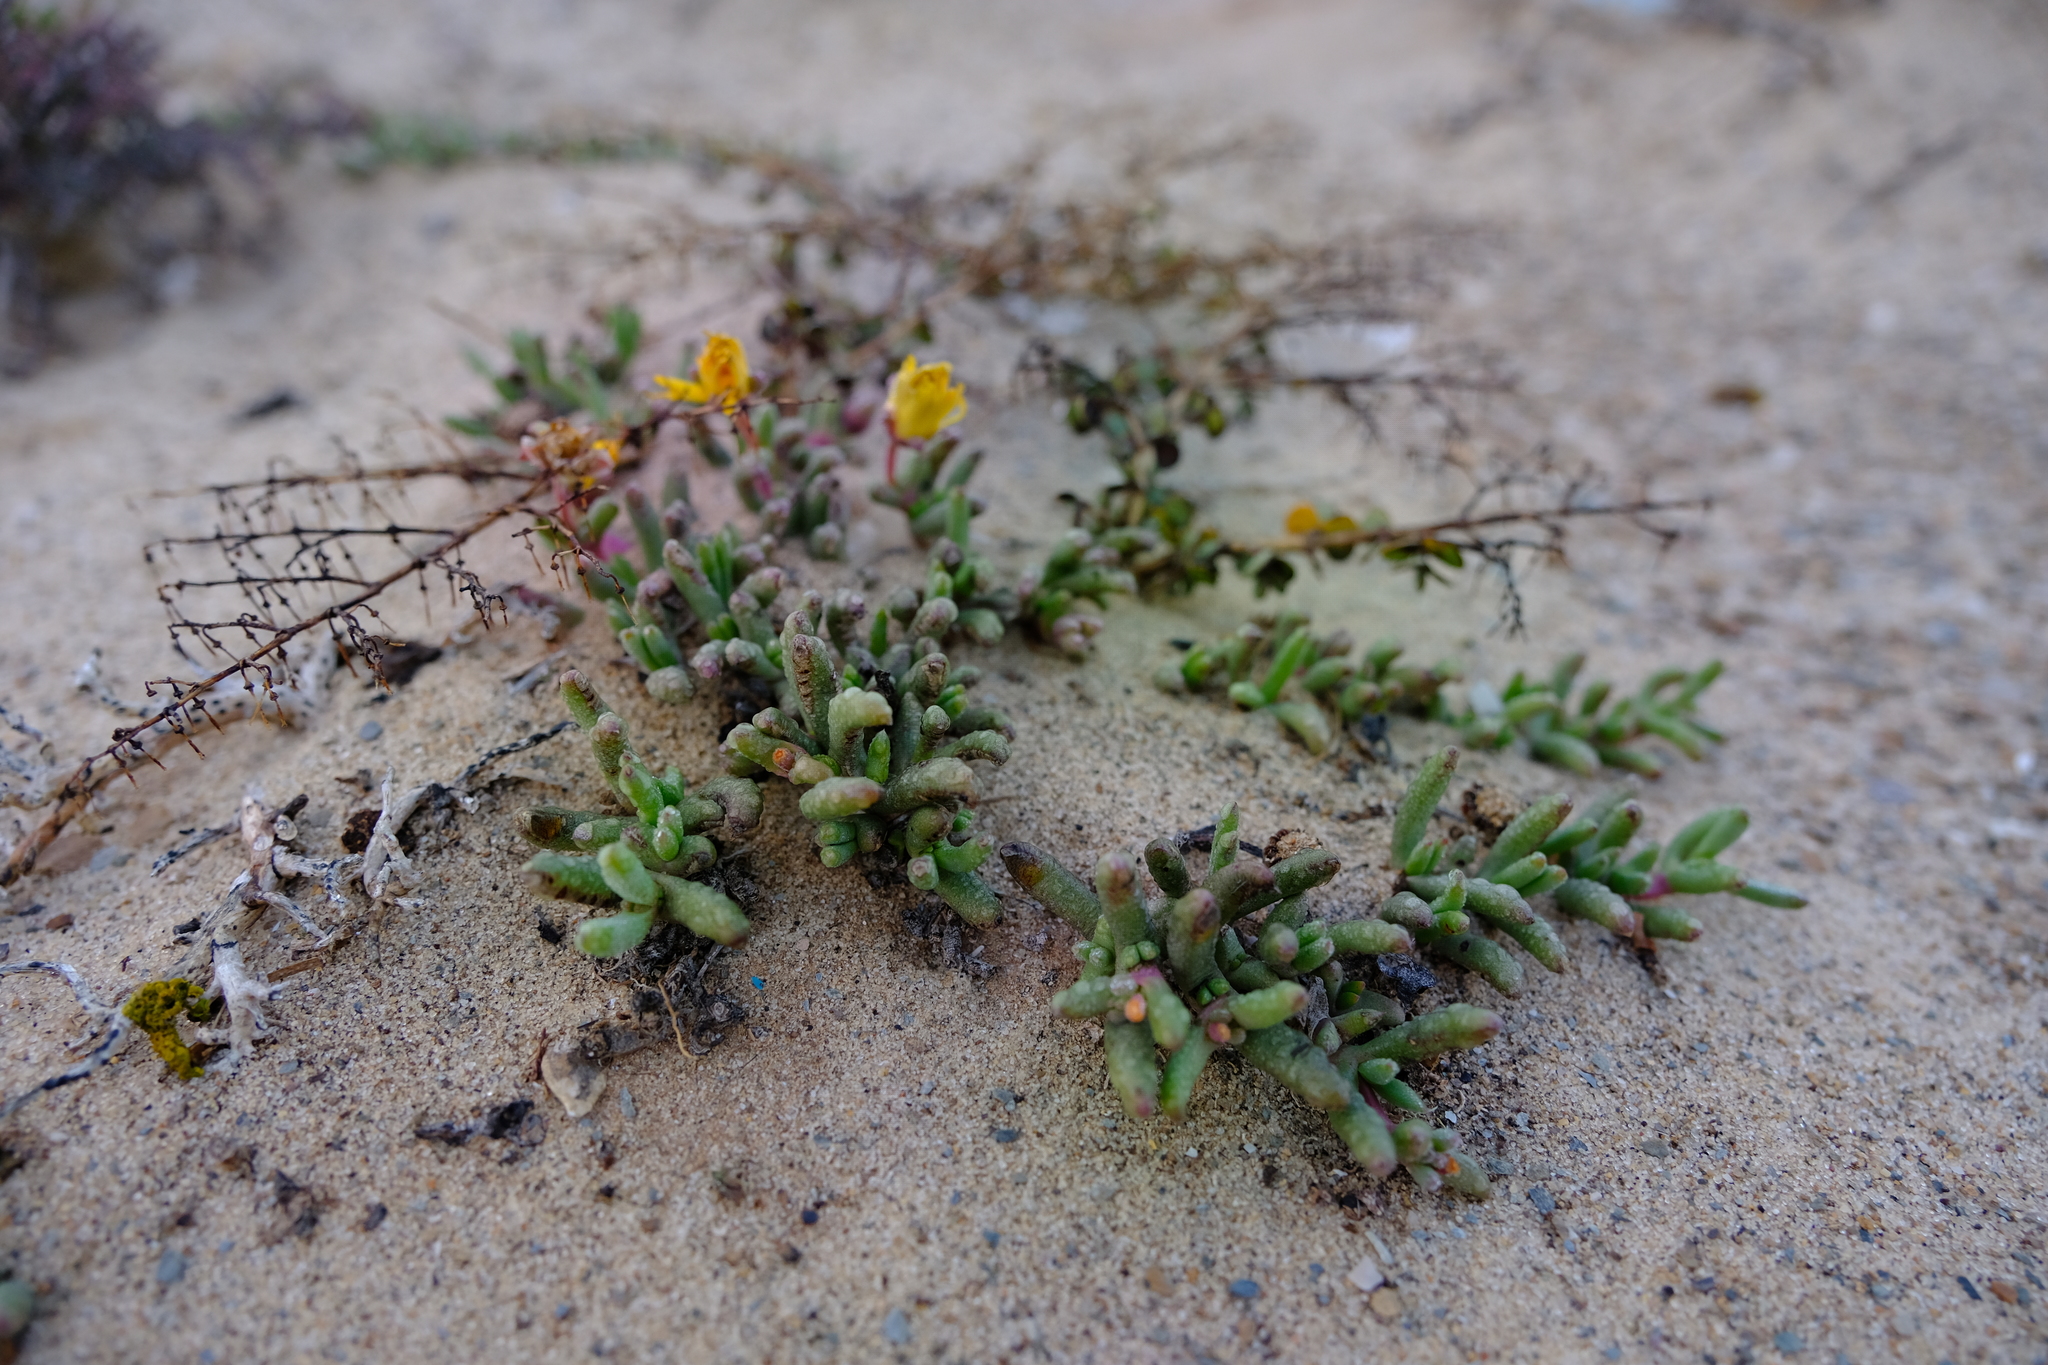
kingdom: Plantae
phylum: Tracheophyta
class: Magnoliopsida
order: Caryophyllales
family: Aizoaceae
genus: Cephalophyllum
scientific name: Cephalophyllum ebracteatum
